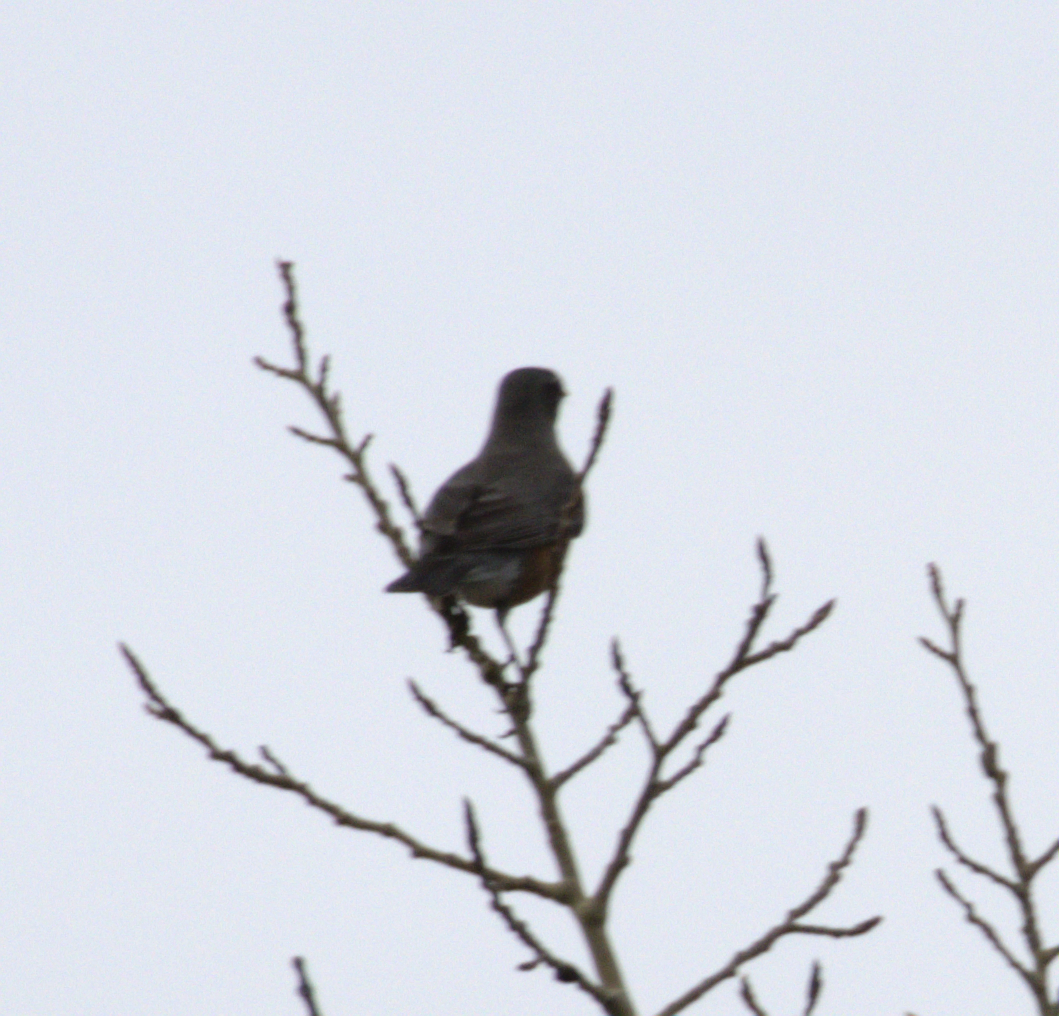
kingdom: Animalia
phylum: Chordata
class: Aves
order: Passeriformes
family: Turdidae
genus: Turdus
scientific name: Turdus migratorius
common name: American robin
